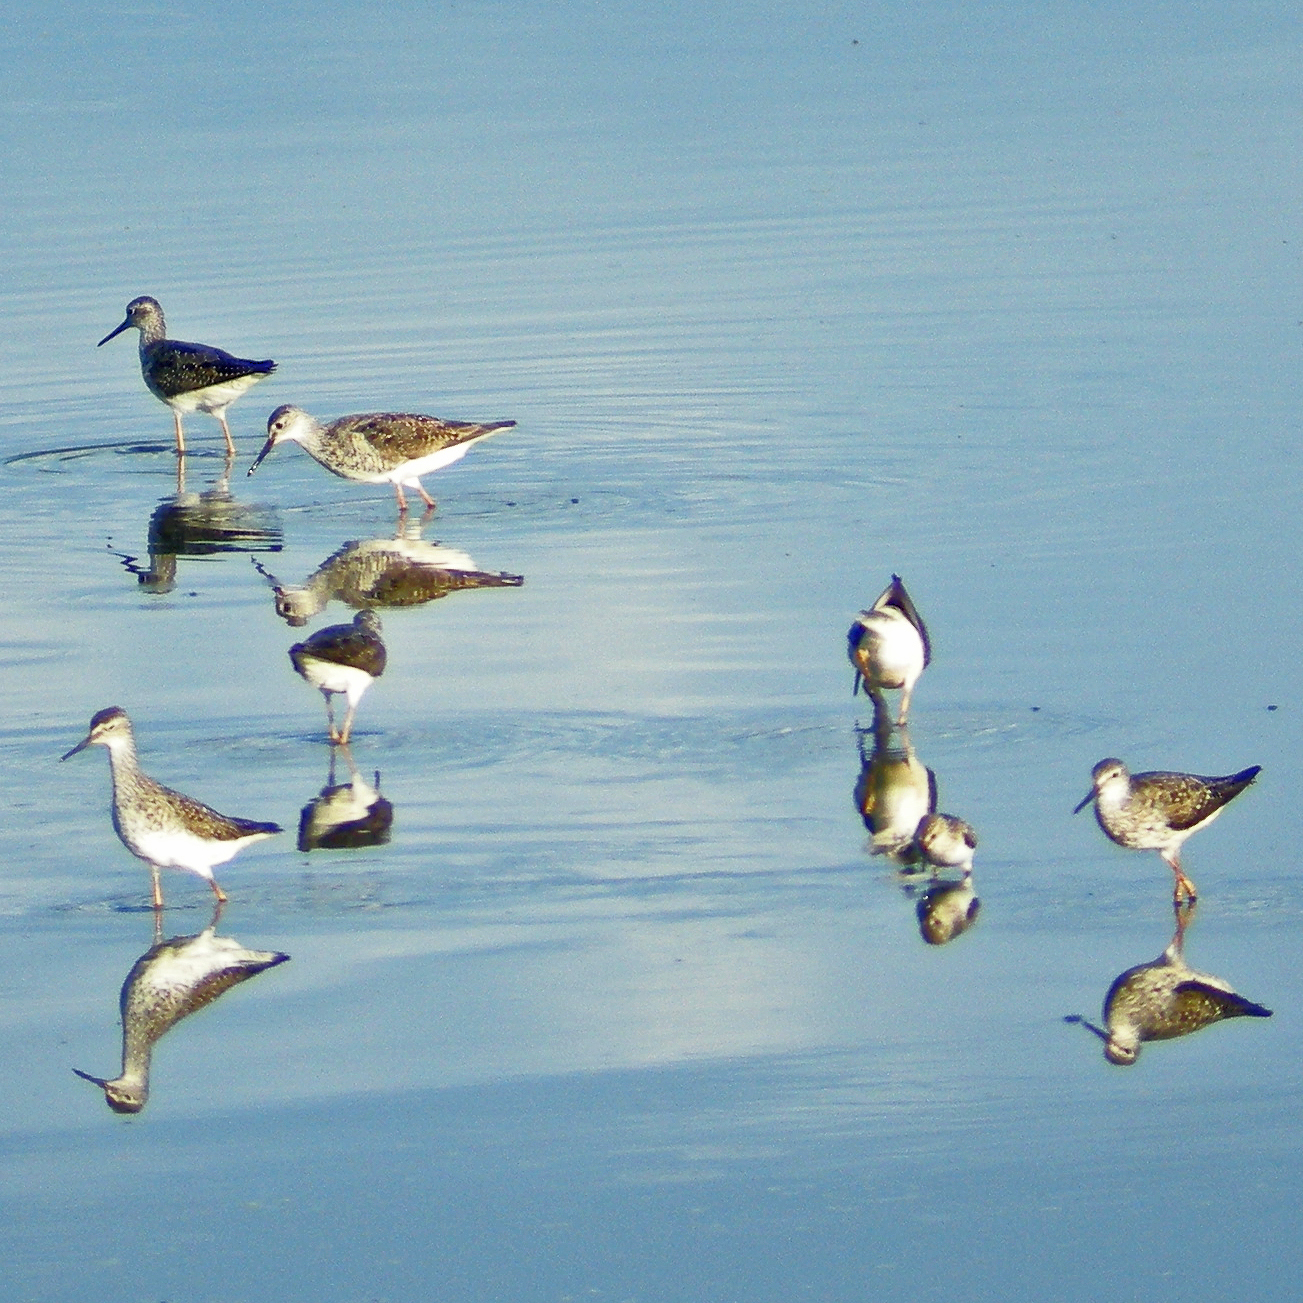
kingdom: Animalia
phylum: Chordata
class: Aves
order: Charadriiformes
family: Scolopacidae
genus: Tringa
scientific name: Tringa flavipes
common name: Lesser yellowlegs
